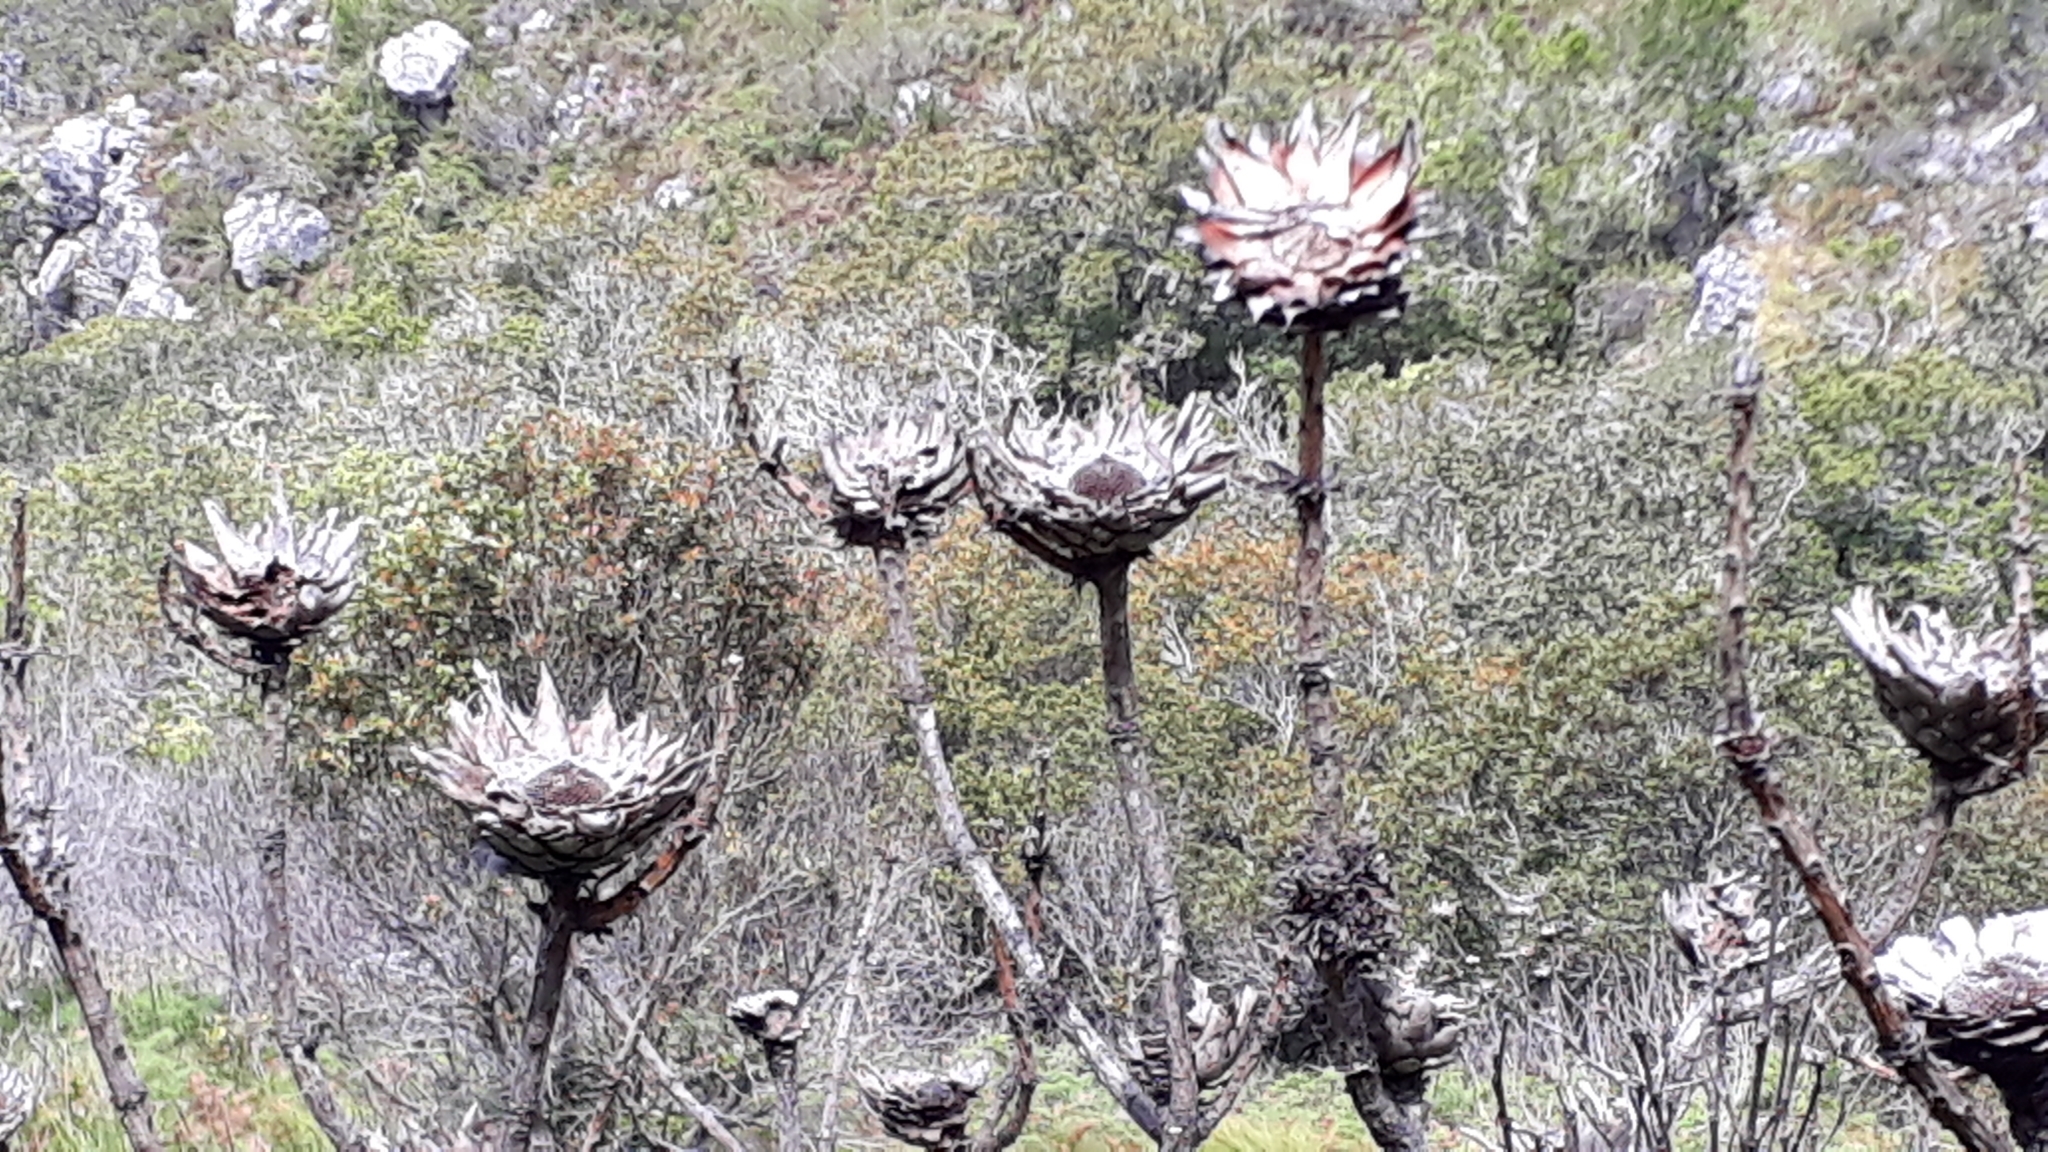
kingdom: Plantae
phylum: Tracheophyta
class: Magnoliopsida
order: Proteales
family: Proteaceae
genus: Protea
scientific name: Protea cynaroides
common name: King protea
